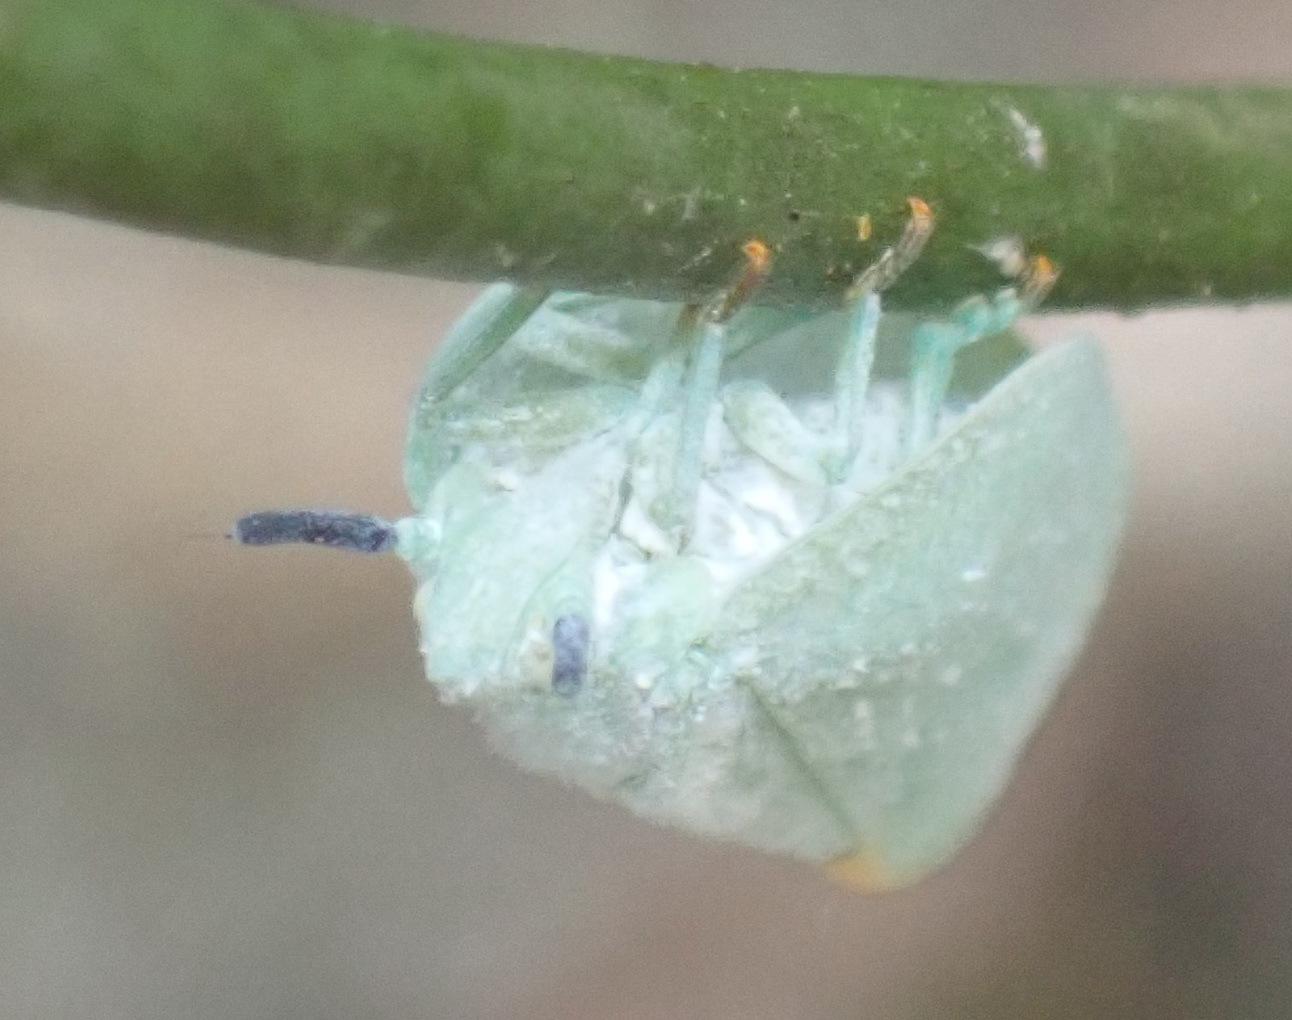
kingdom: Animalia
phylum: Arthropoda
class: Insecta
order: Hemiptera
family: Flatidae
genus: Dalapax
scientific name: Dalapax postica
